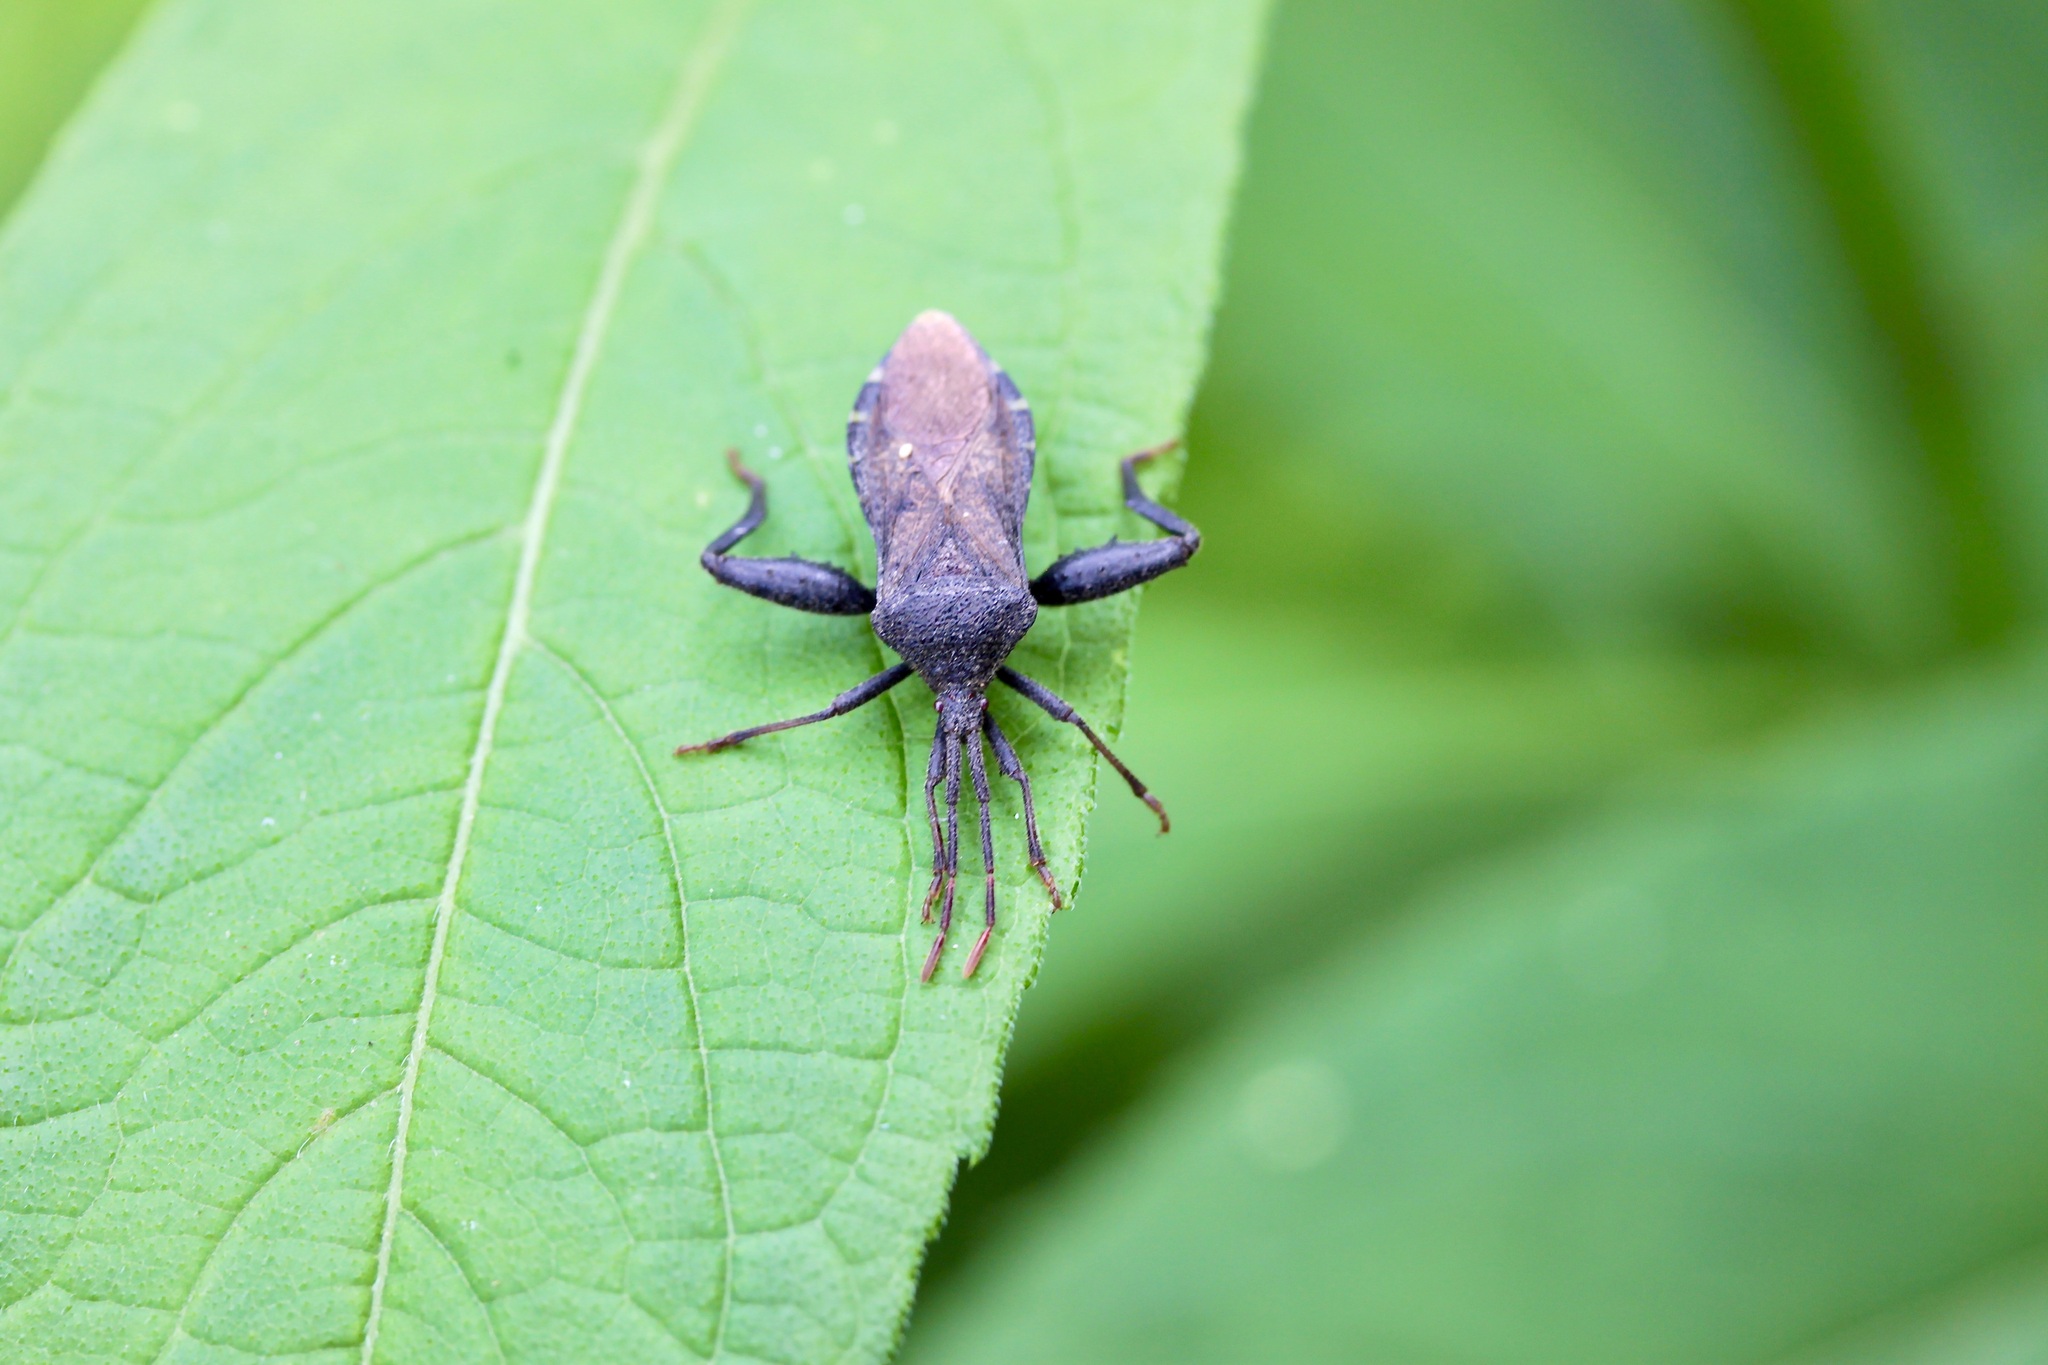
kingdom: Animalia
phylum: Arthropoda
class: Insecta
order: Hemiptera
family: Coreidae
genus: Piezogaster
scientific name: Piezogaster calcarator
